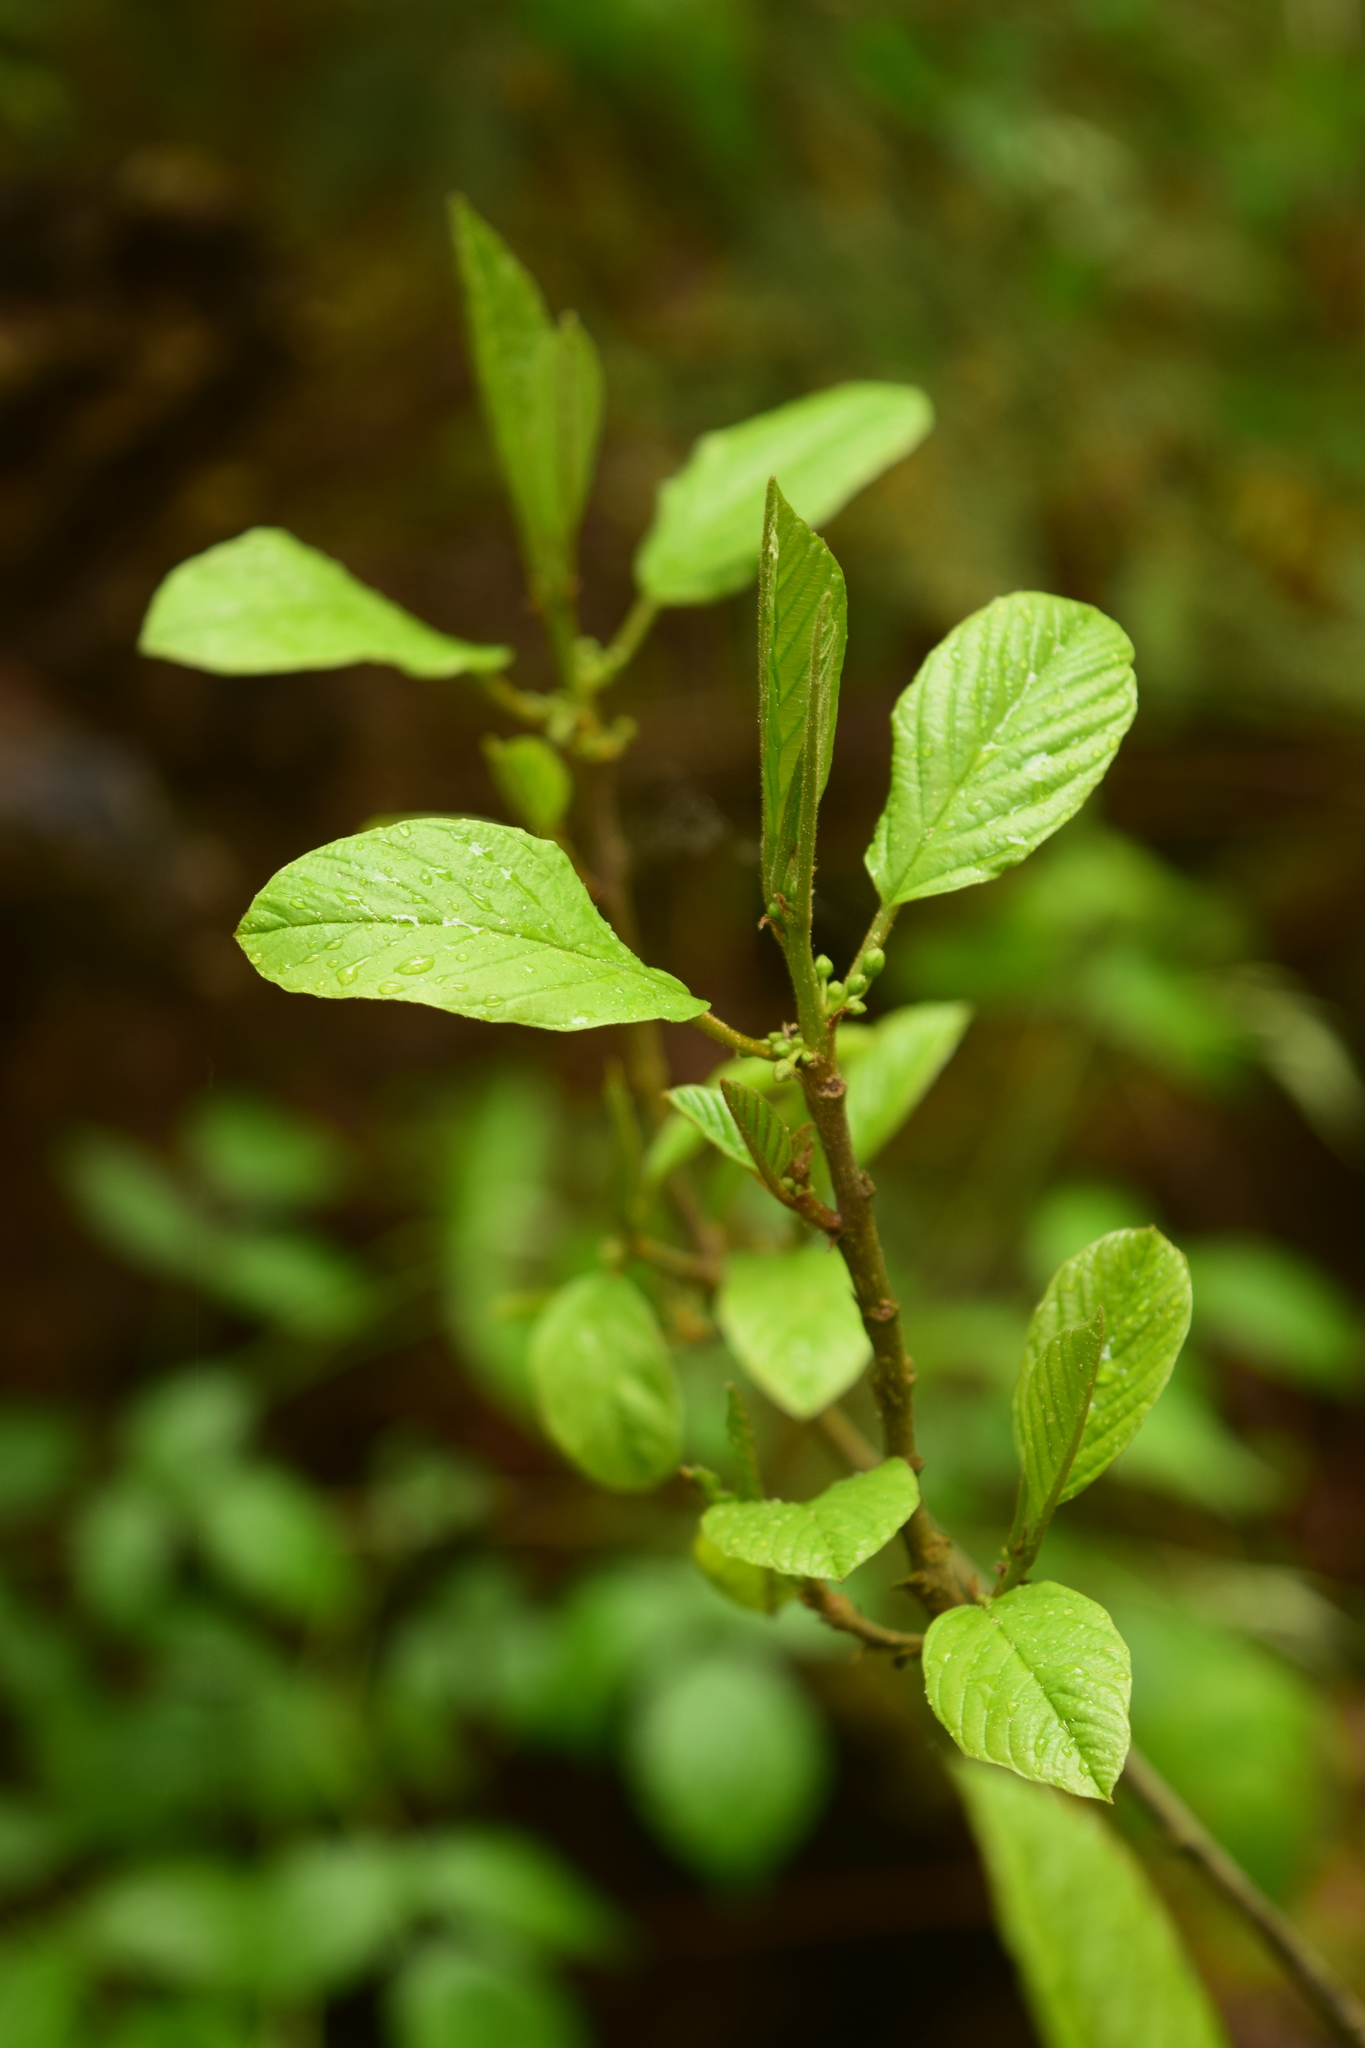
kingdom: Plantae
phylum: Tracheophyta
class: Magnoliopsida
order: Rosales
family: Rhamnaceae
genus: Frangula
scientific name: Frangula alnus
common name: Alder buckthorn
